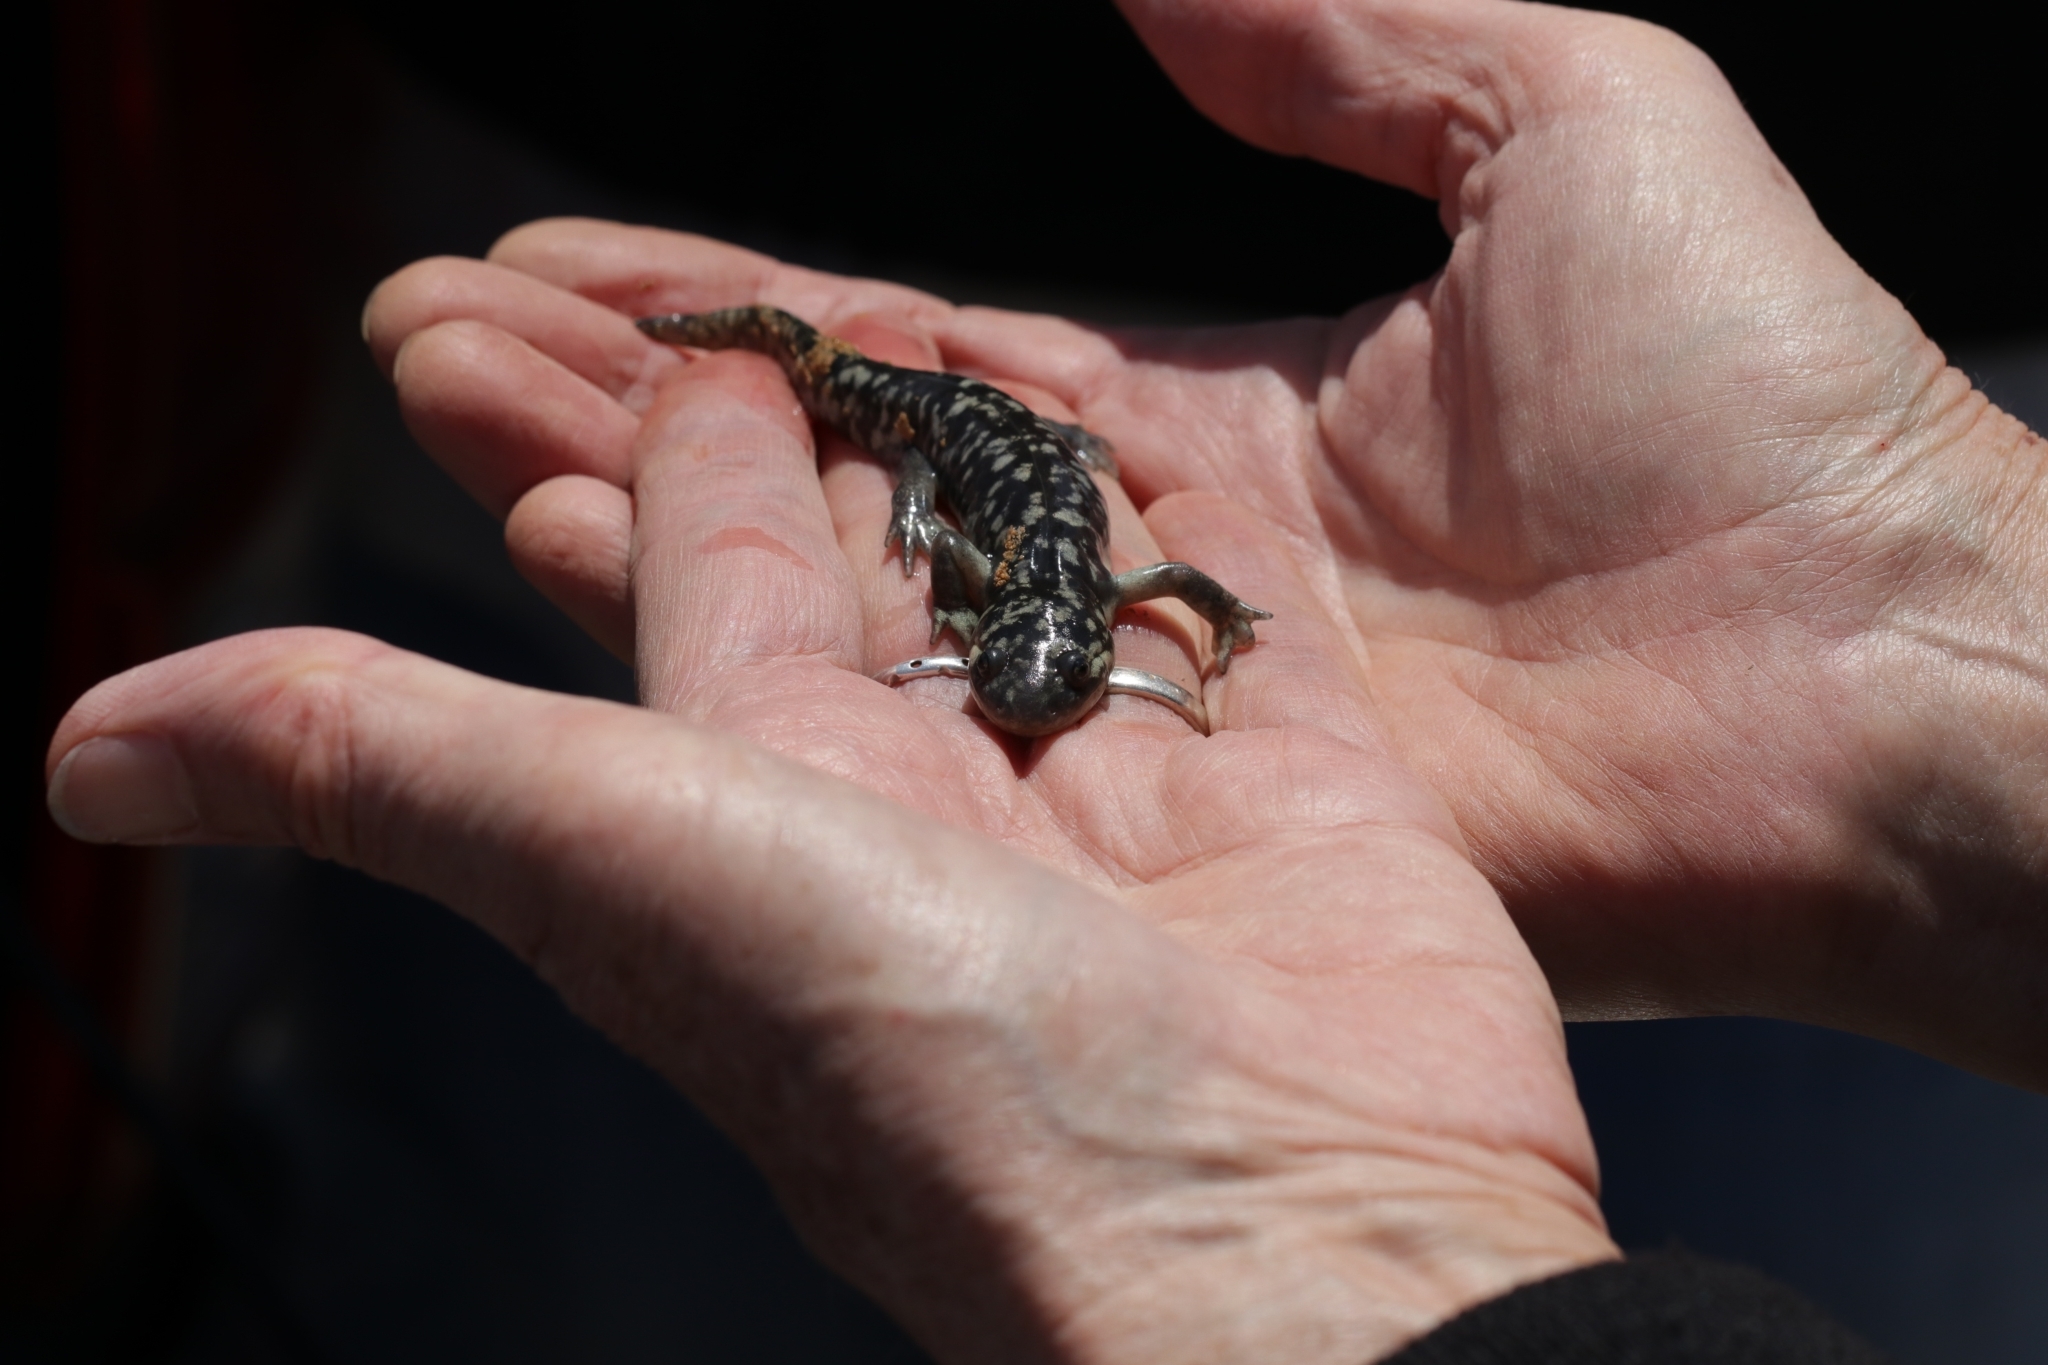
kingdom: Animalia
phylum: Chordata
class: Amphibia
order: Caudata
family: Ambystomatidae
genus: Ambystoma
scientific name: Ambystoma californiense
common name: California tiger salamander
